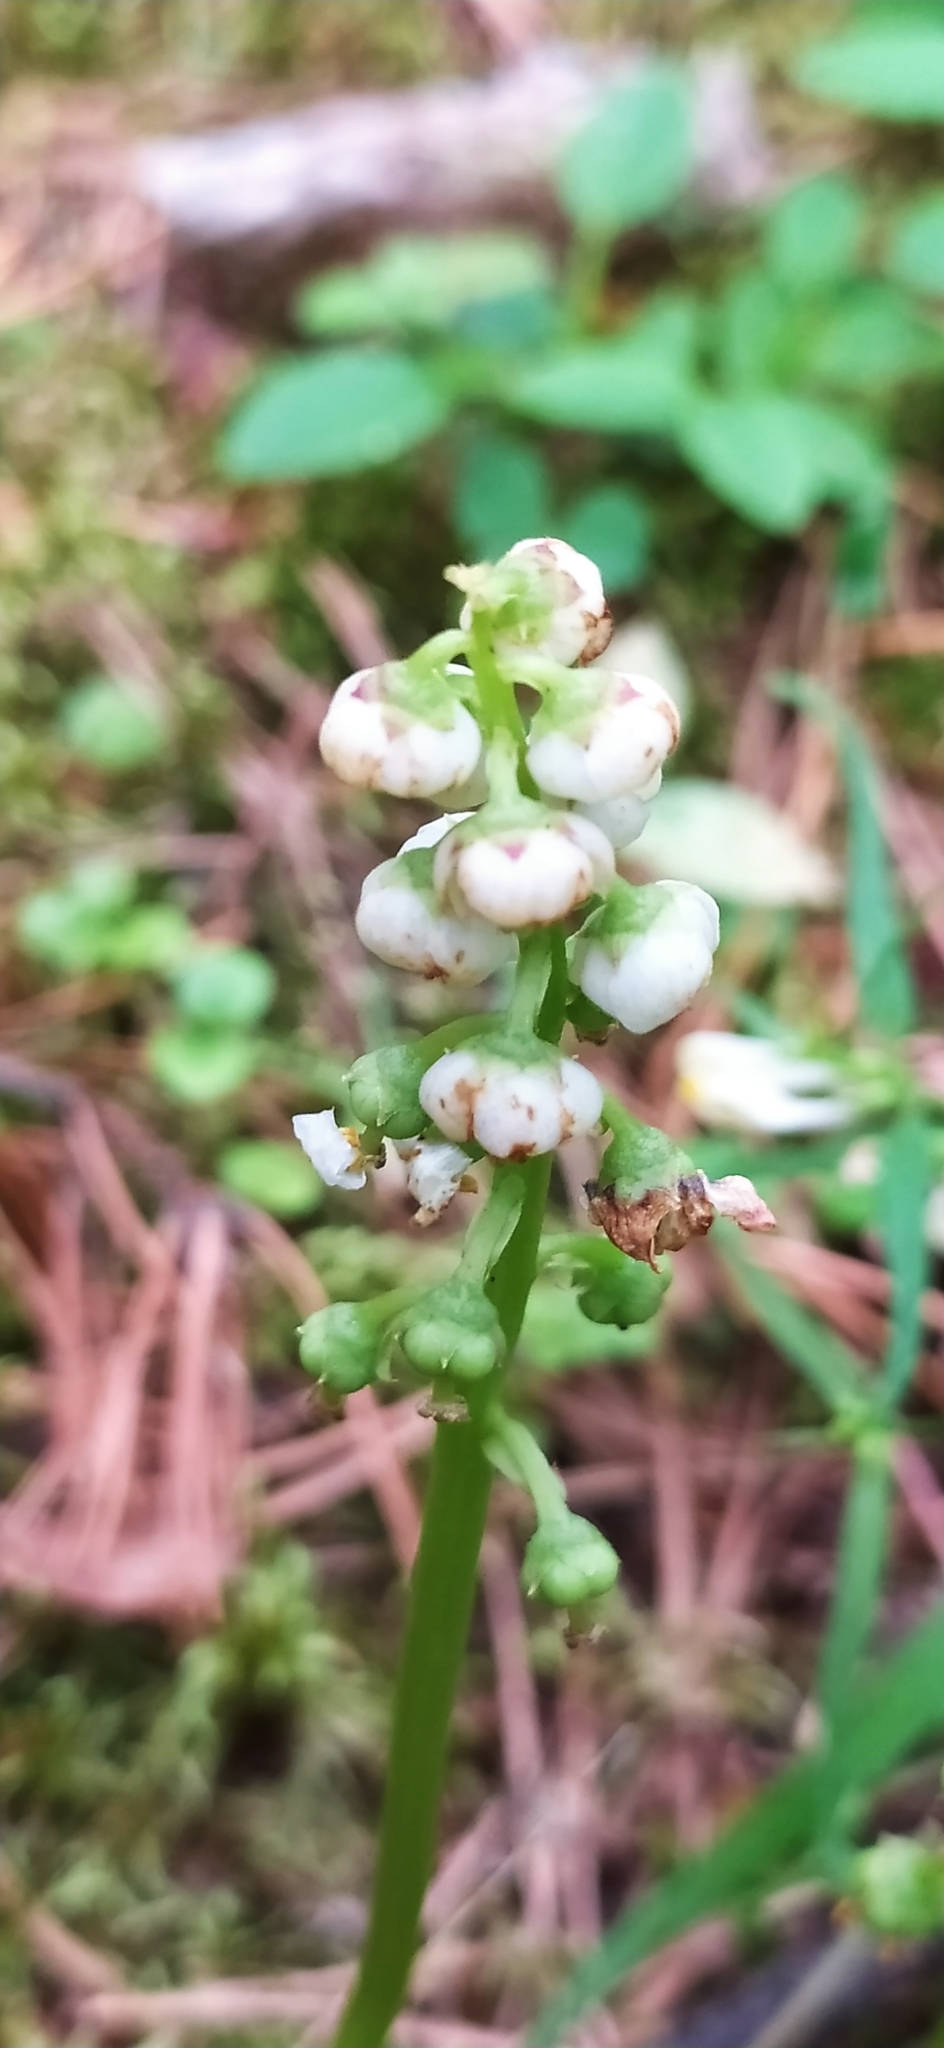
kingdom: Plantae
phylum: Tracheophyta
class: Magnoliopsida
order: Ericales
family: Ericaceae
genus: Pyrola
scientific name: Pyrola minor
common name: Common wintergreen
